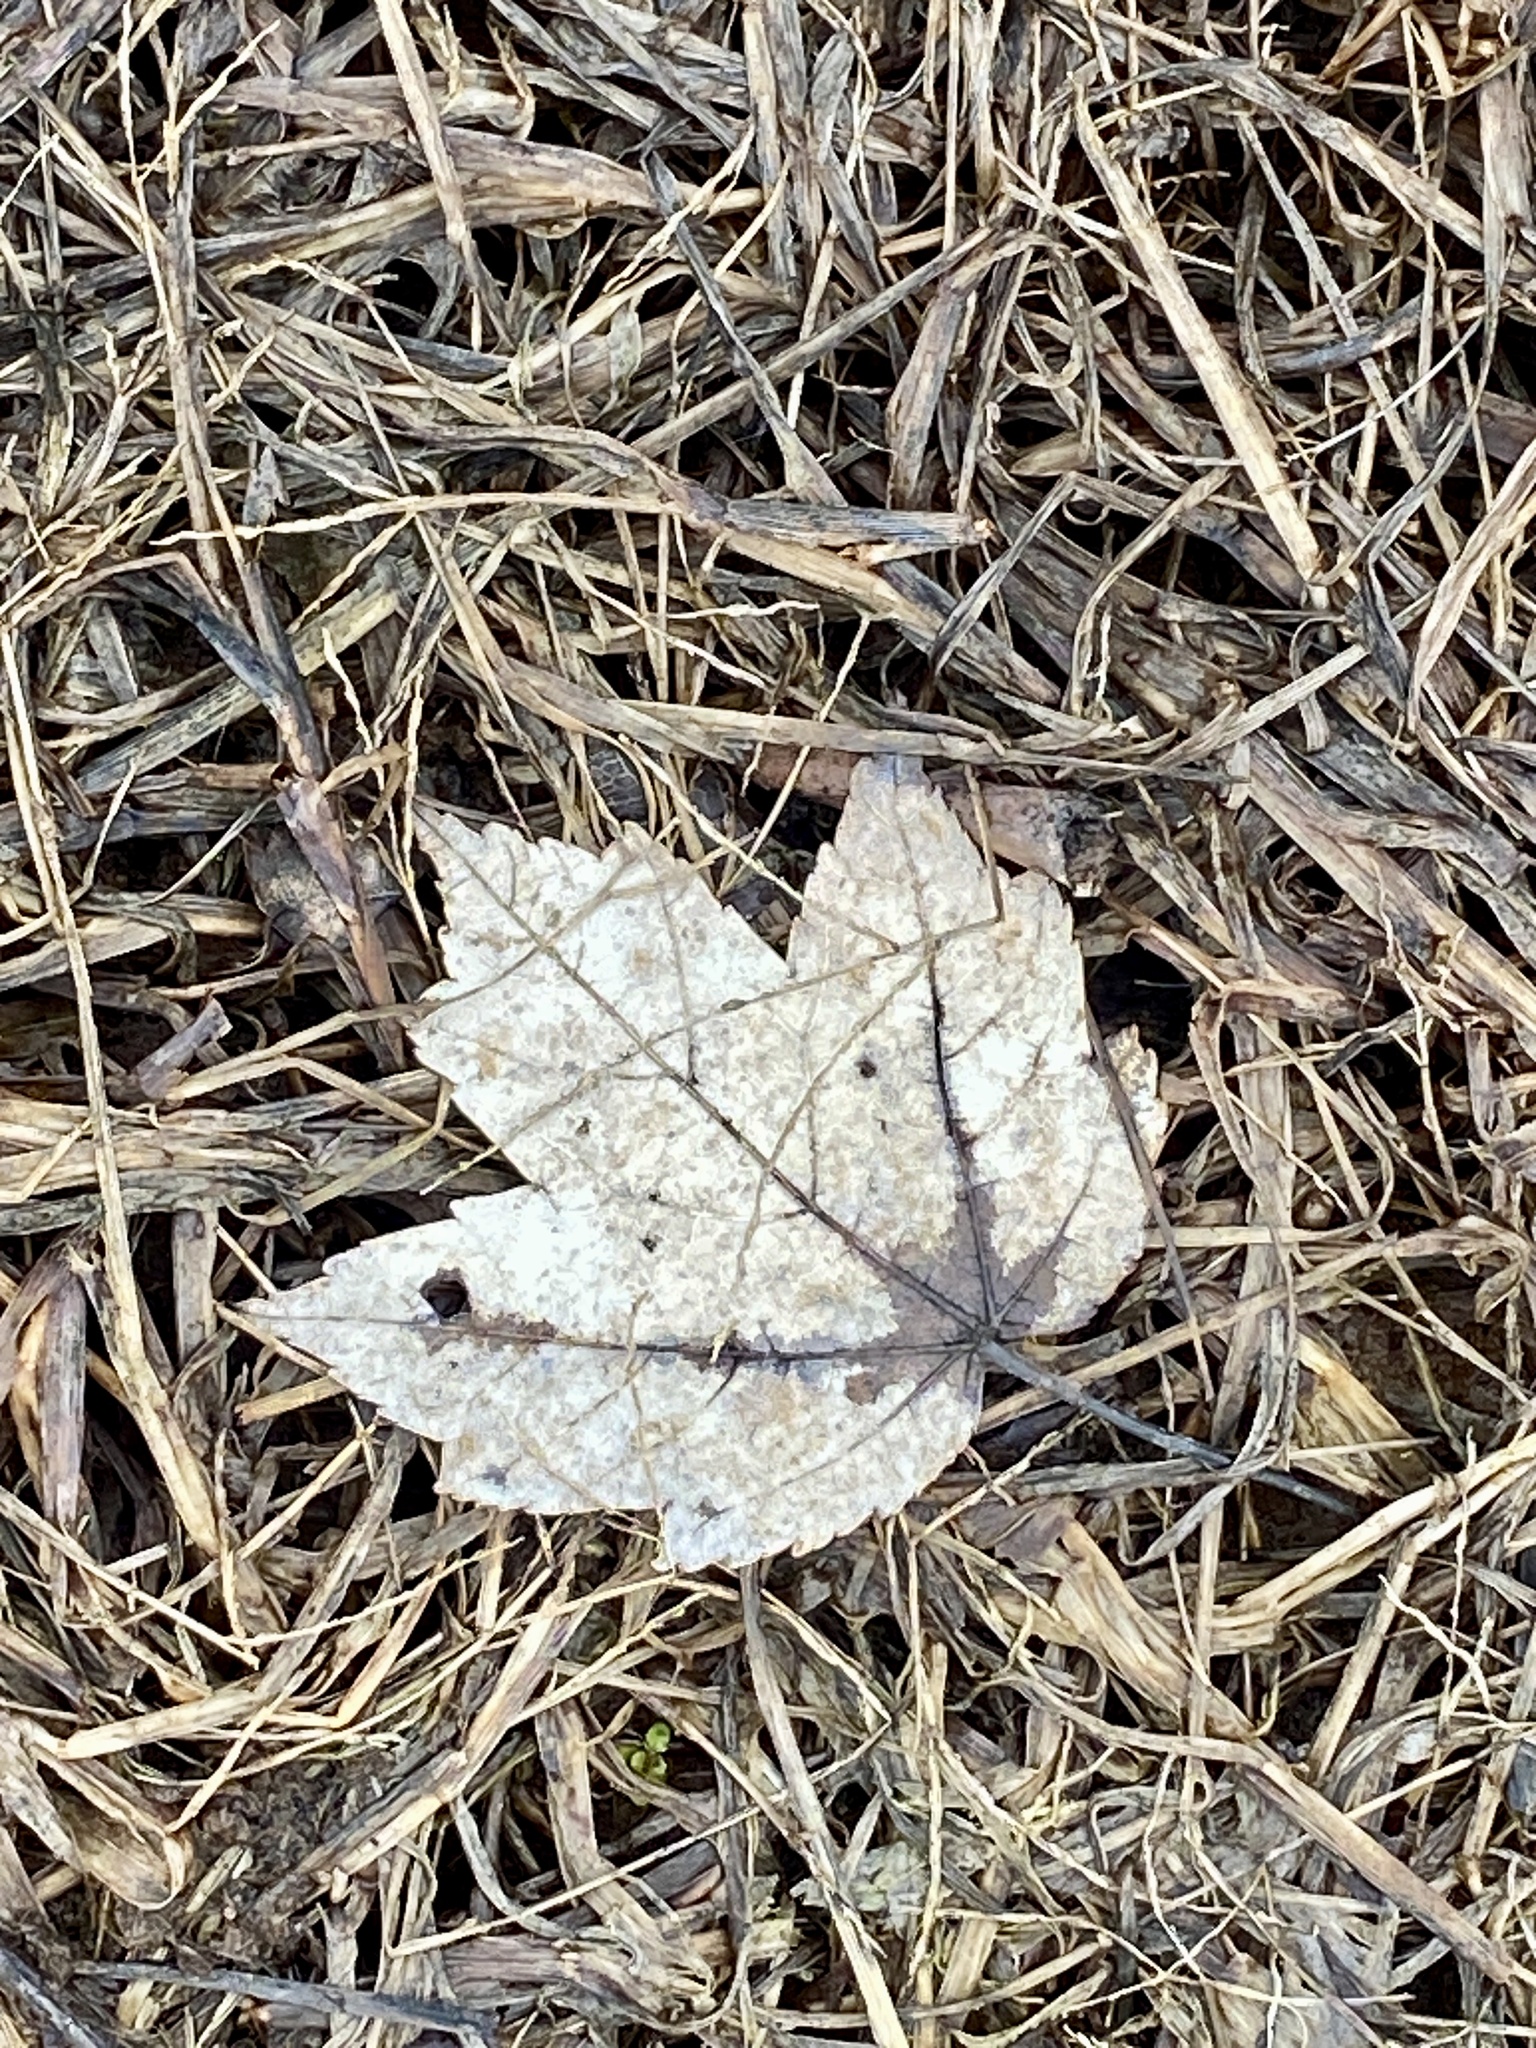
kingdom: Plantae
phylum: Tracheophyta
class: Magnoliopsida
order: Sapindales
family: Sapindaceae
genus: Acer
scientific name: Acer rubrum
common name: Red maple
